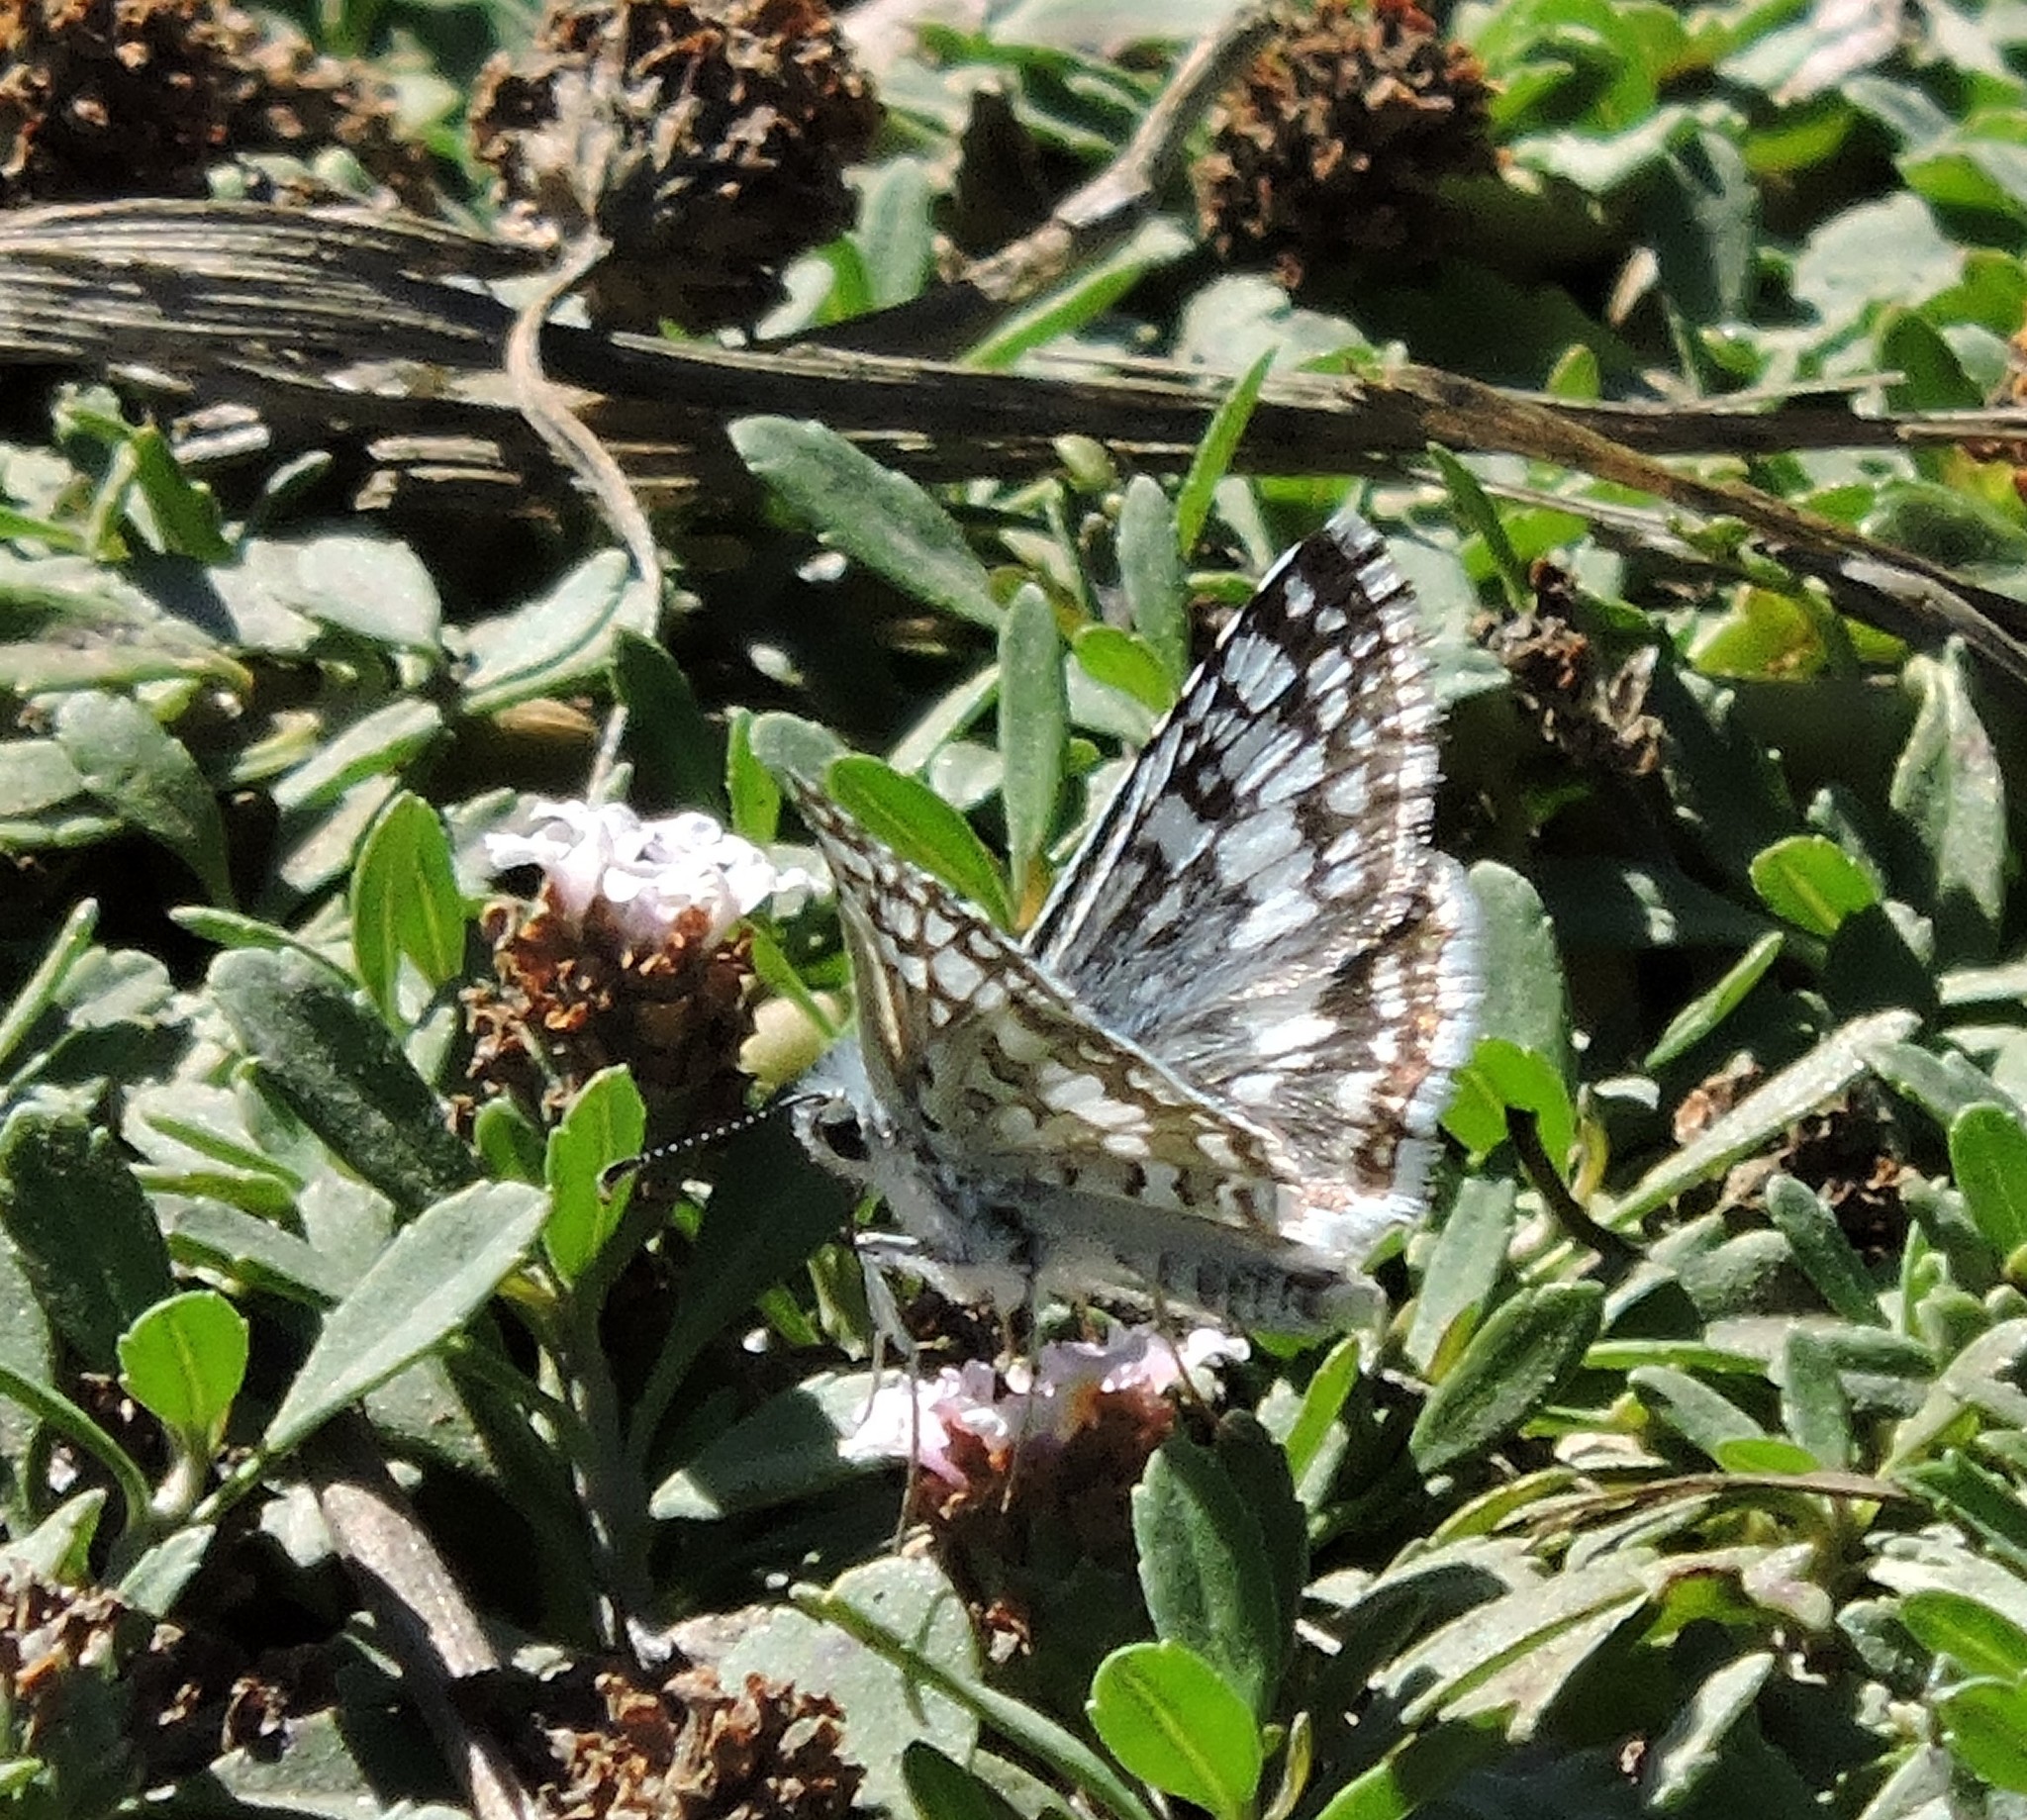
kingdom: Animalia
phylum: Arthropoda
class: Insecta
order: Lepidoptera
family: Hesperiidae
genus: Burnsius
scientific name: Burnsius communis
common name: Common checkered-skipper
